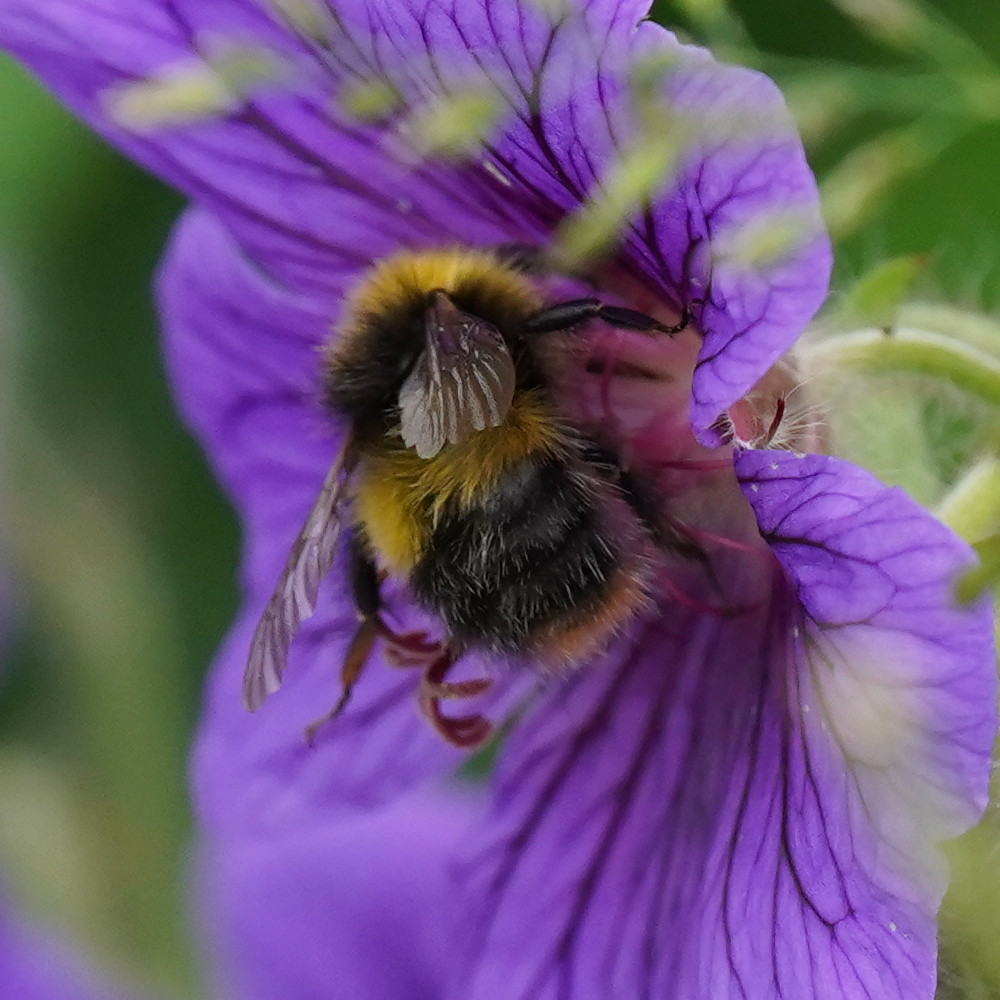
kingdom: Animalia
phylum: Arthropoda
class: Insecta
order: Hymenoptera
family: Apidae
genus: Bombus
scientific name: Bombus pratorum
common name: Early humble-bee
